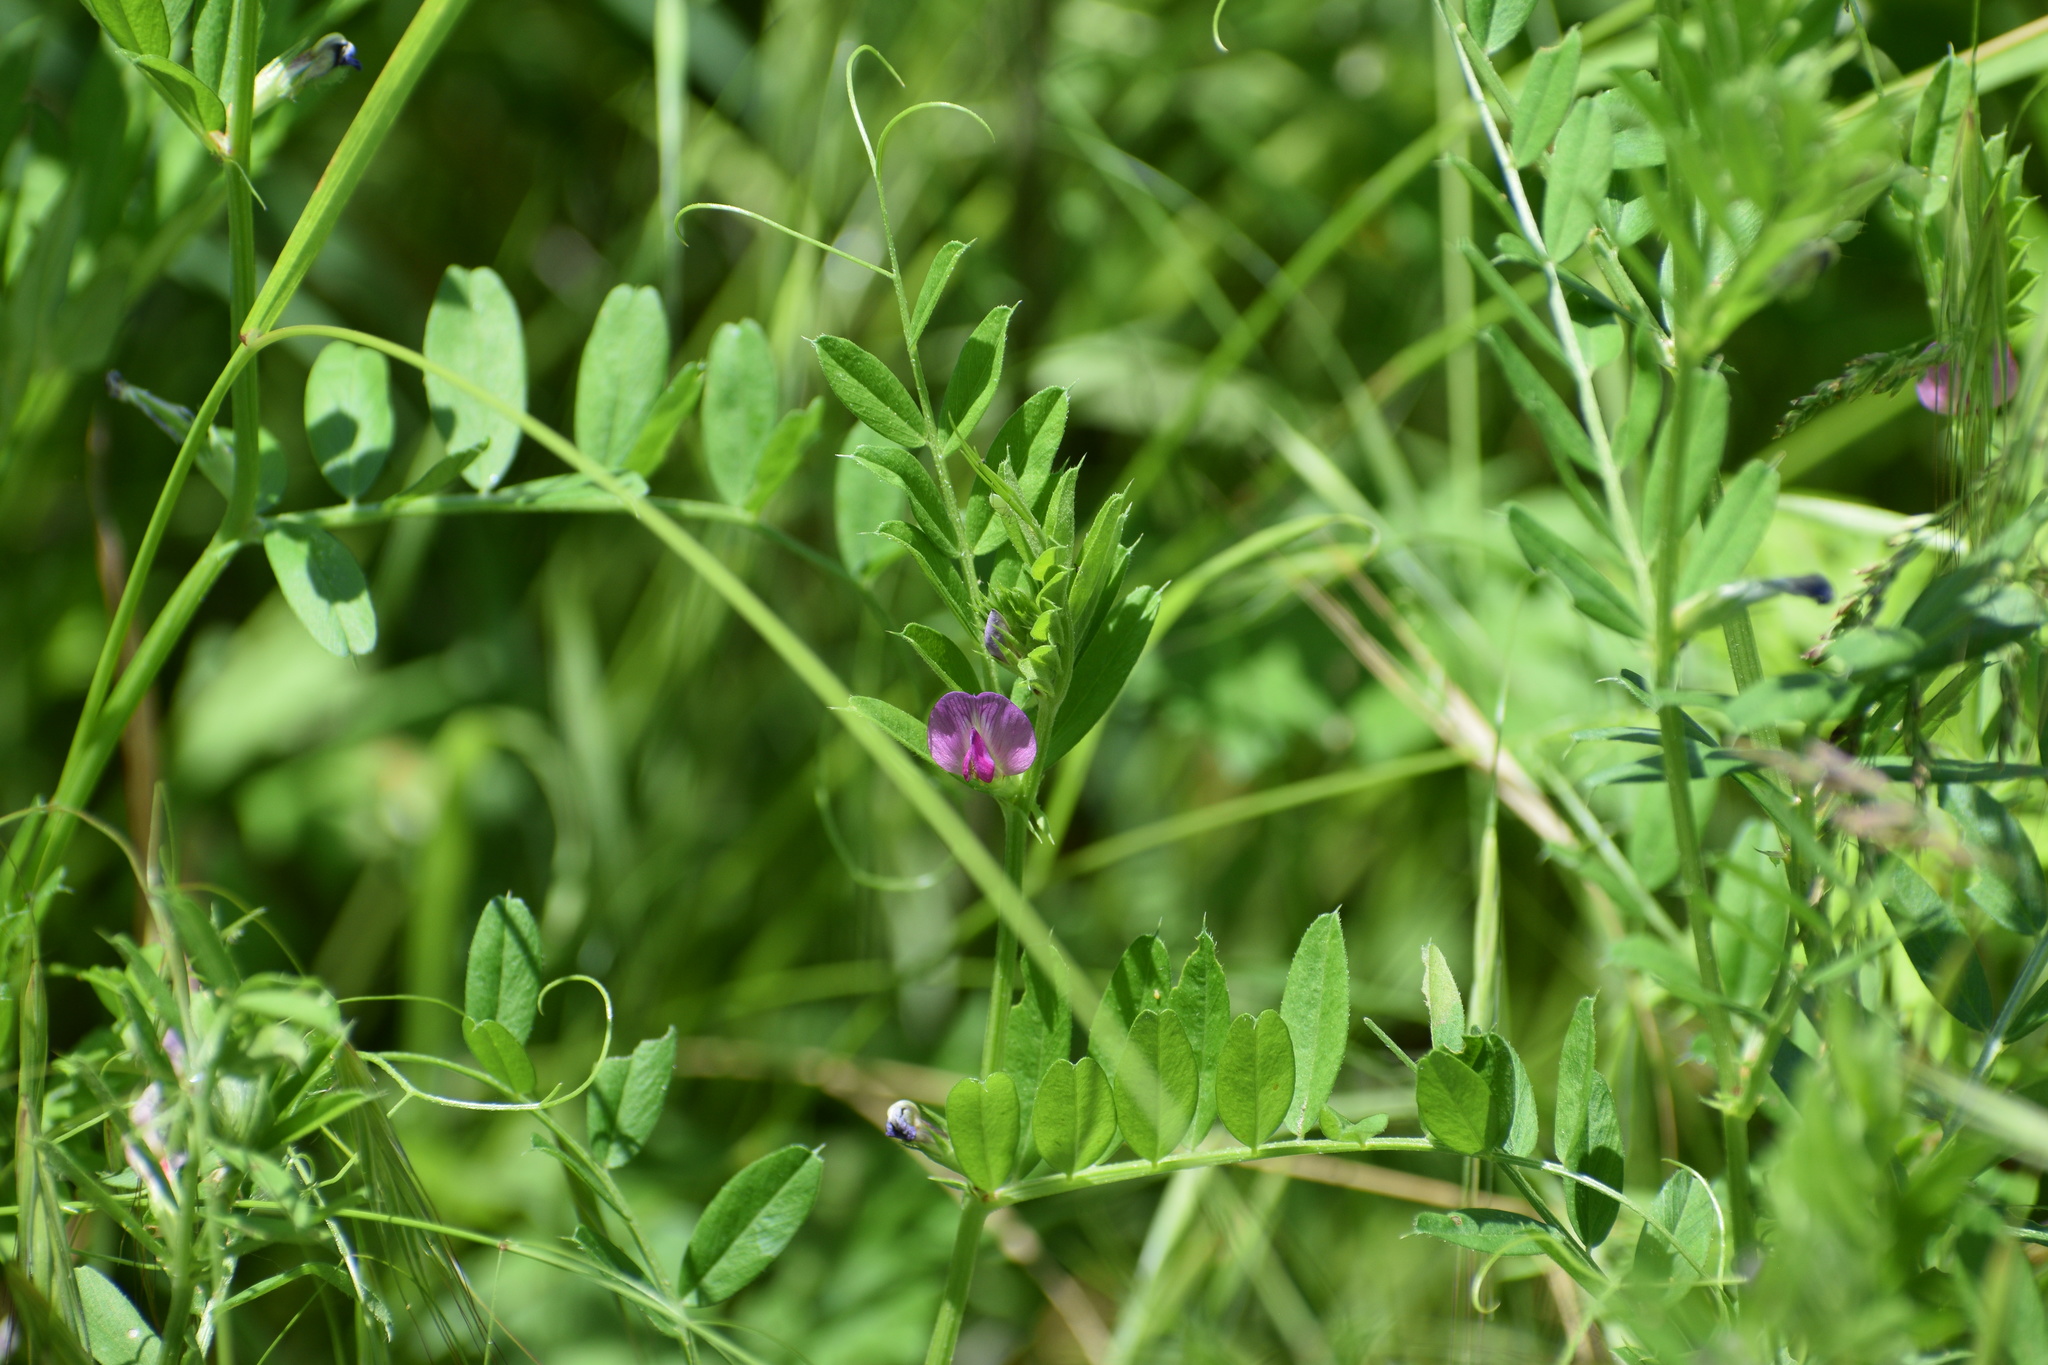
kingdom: Plantae
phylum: Tracheophyta
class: Magnoliopsida
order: Fabales
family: Fabaceae
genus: Vicia
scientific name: Vicia sativa
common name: Garden vetch
